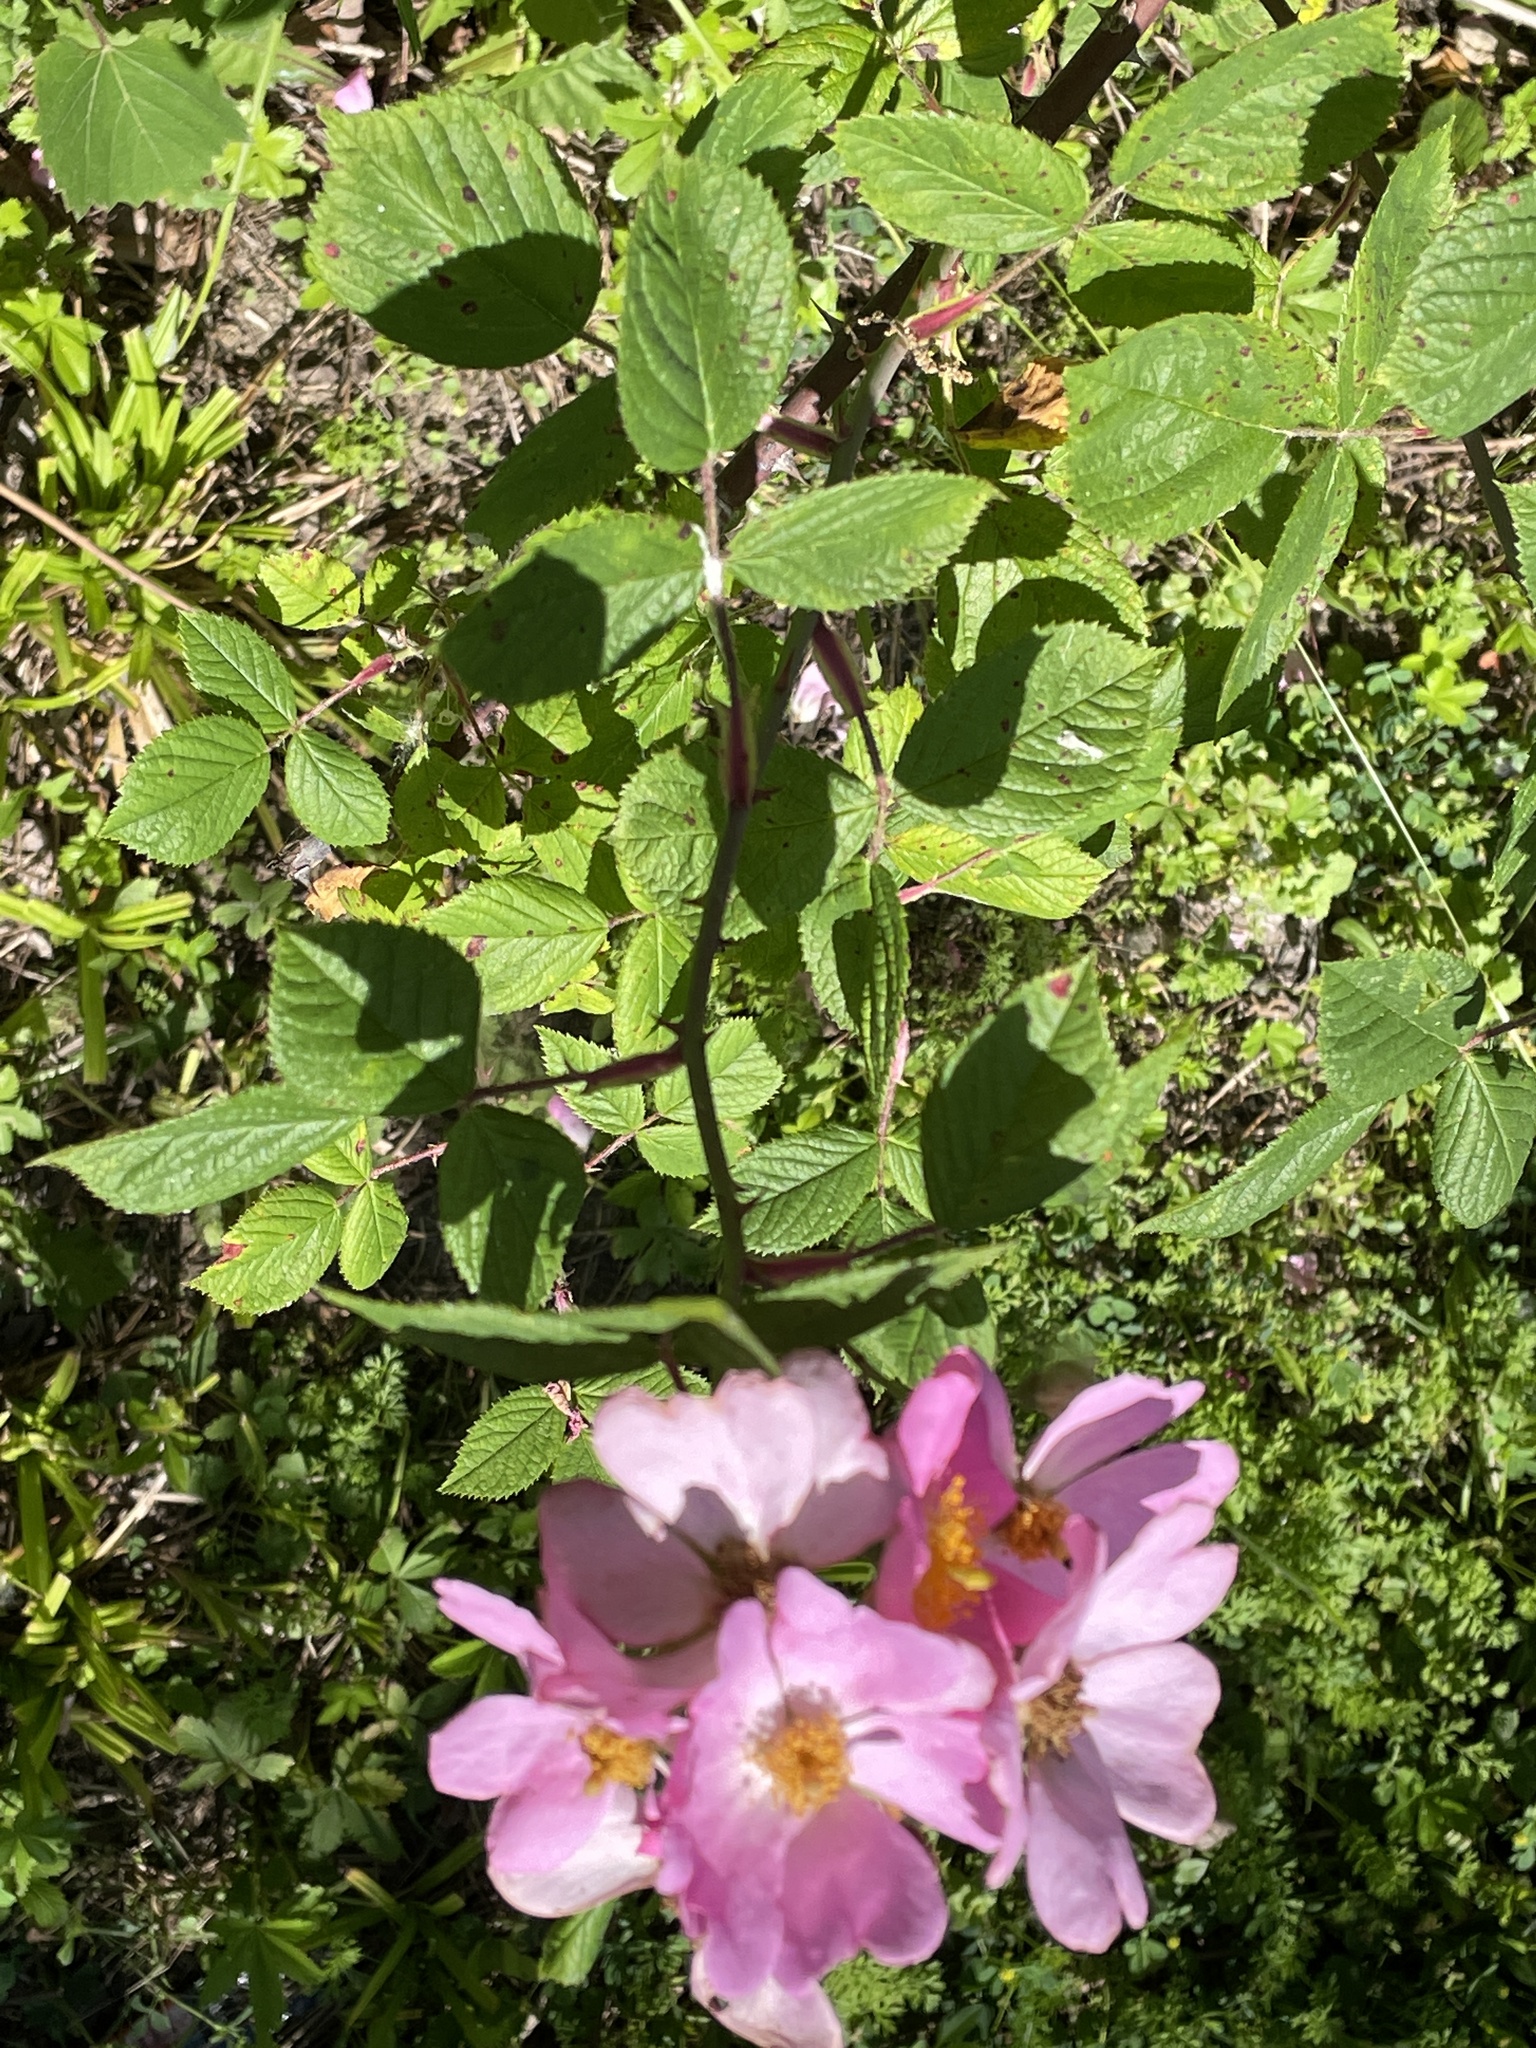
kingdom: Plantae
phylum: Tracheophyta
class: Magnoliopsida
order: Rosales
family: Rosaceae
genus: Rosa
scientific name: Rosa setigera
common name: Prairie rose
